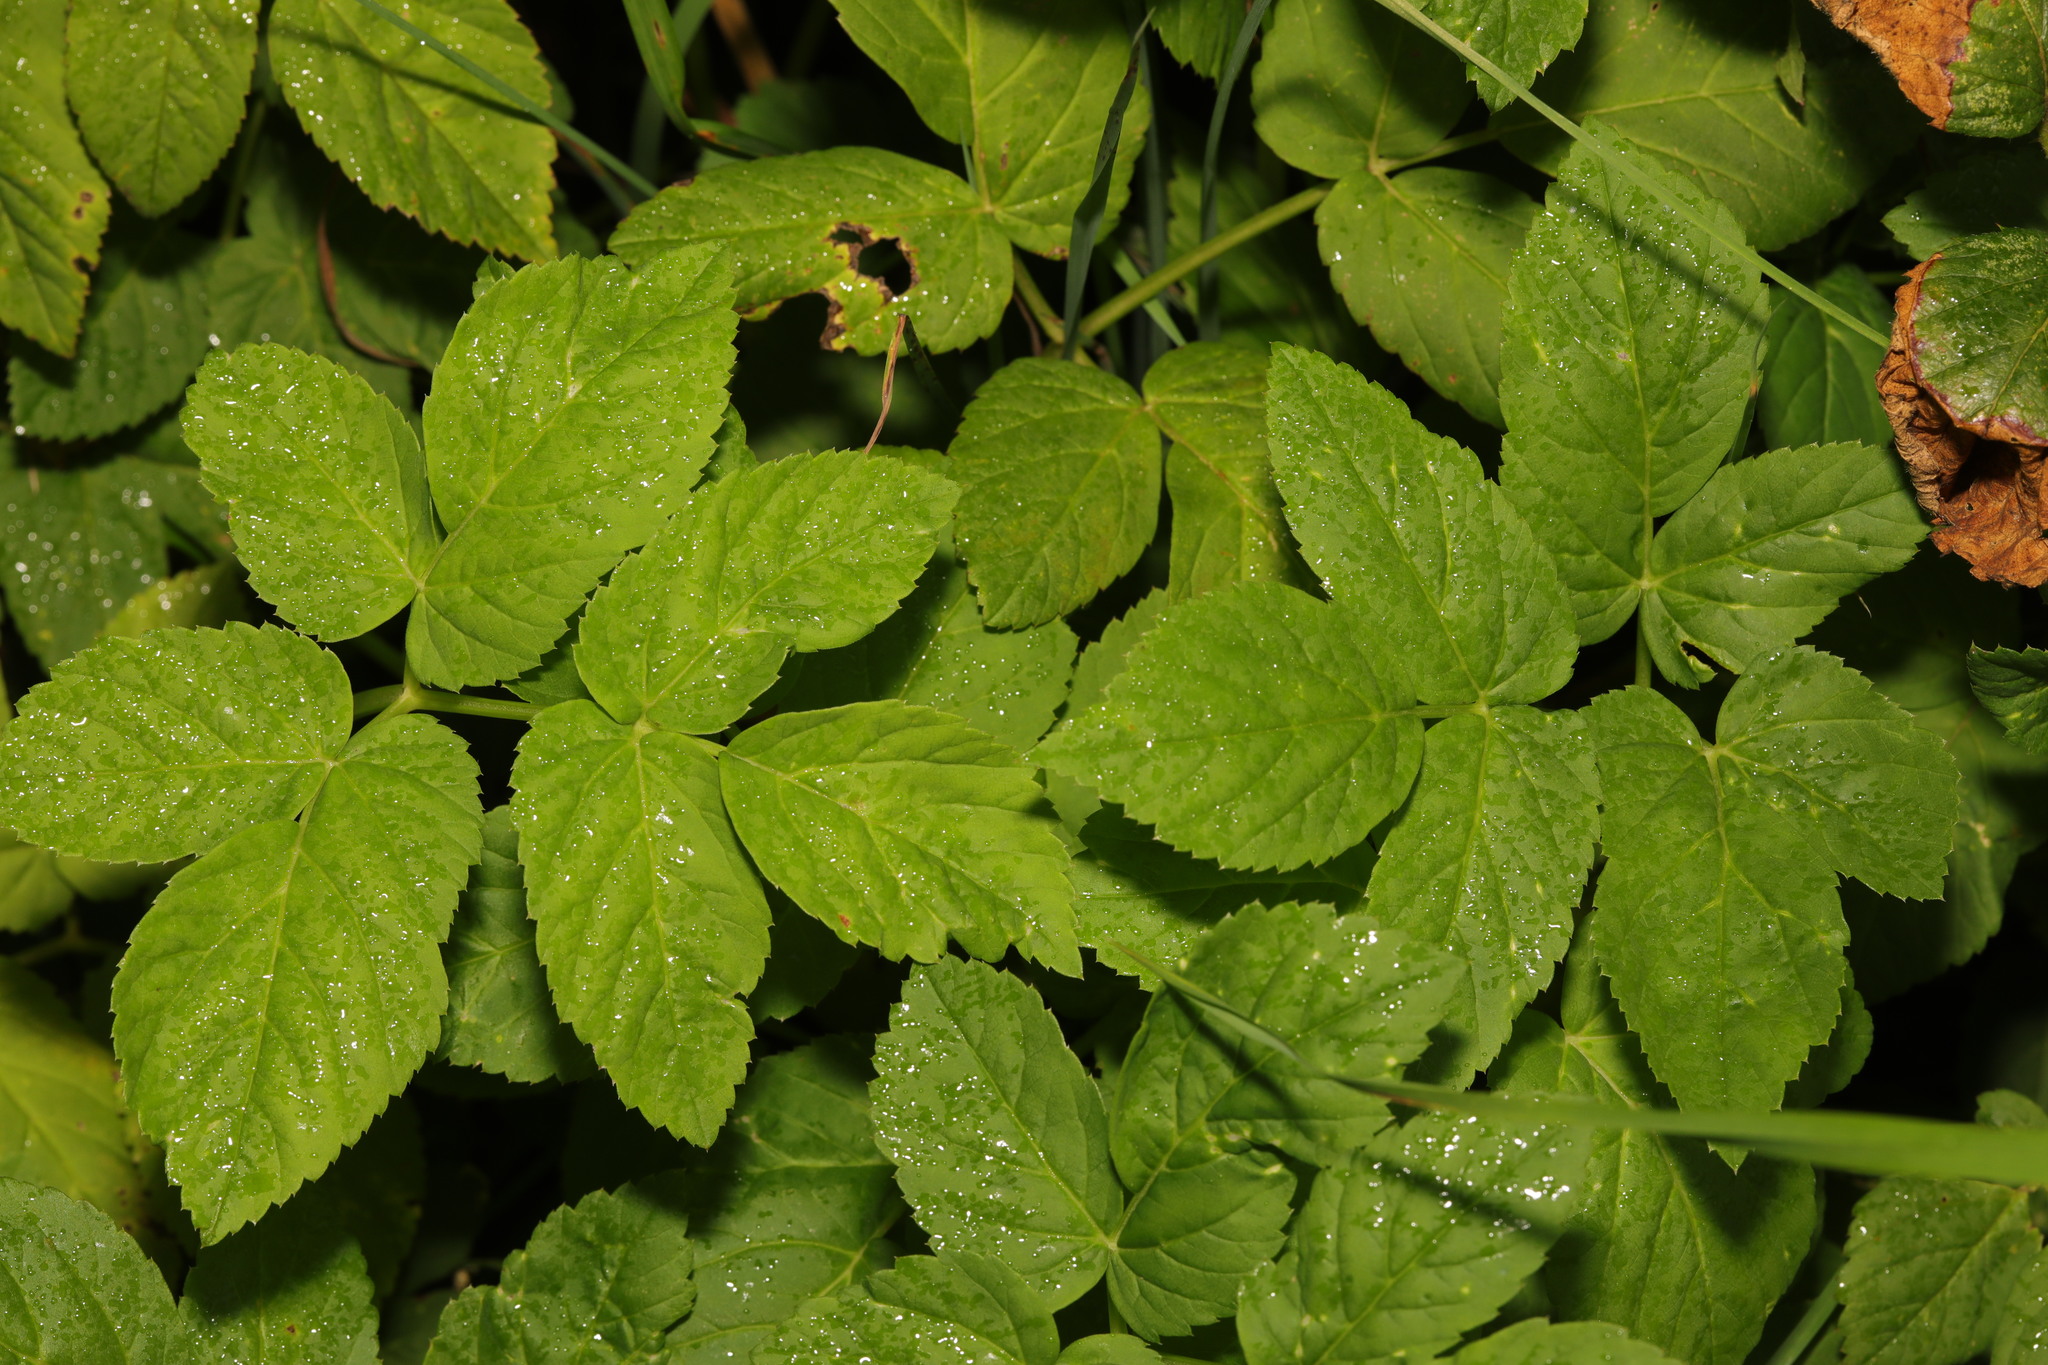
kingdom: Plantae
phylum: Tracheophyta
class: Magnoliopsida
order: Apiales
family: Apiaceae
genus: Aegopodium
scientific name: Aegopodium podagraria
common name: Ground-elder
